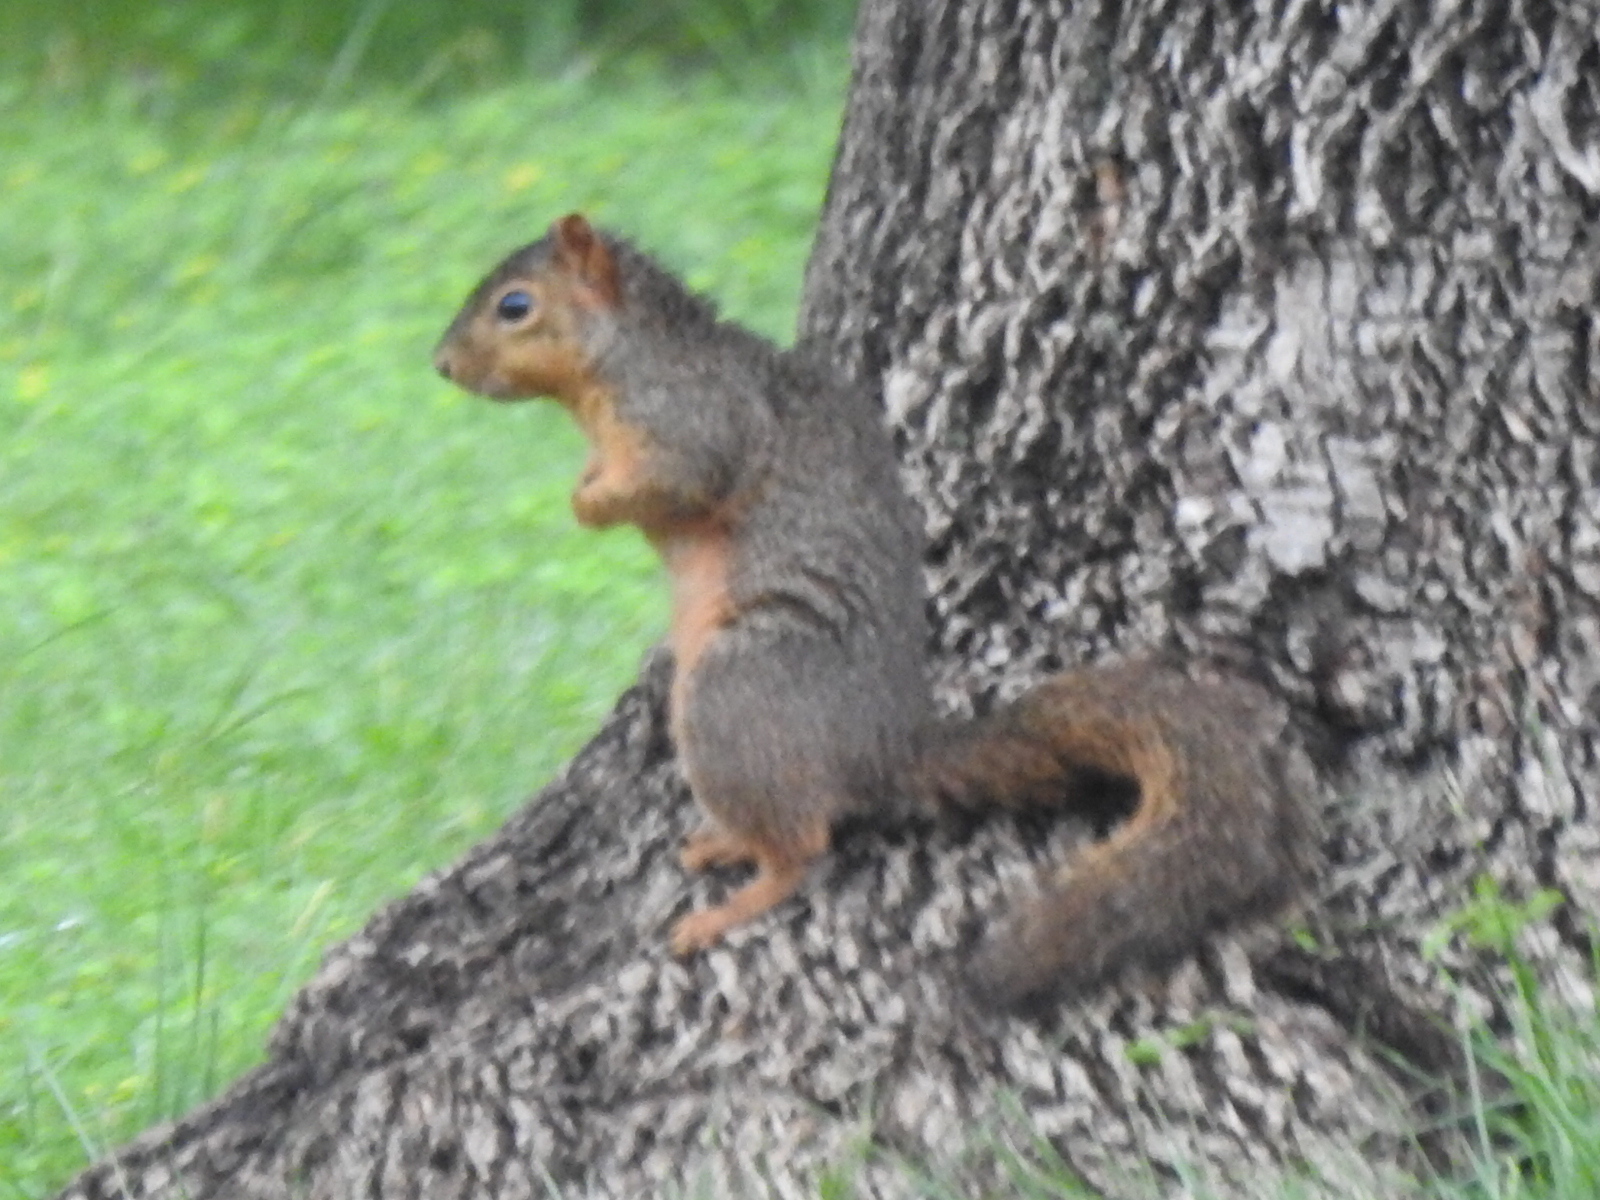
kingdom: Animalia
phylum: Chordata
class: Mammalia
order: Rodentia
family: Sciuridae
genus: Sciurus
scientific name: Sciurus niger
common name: Fox squirrel
